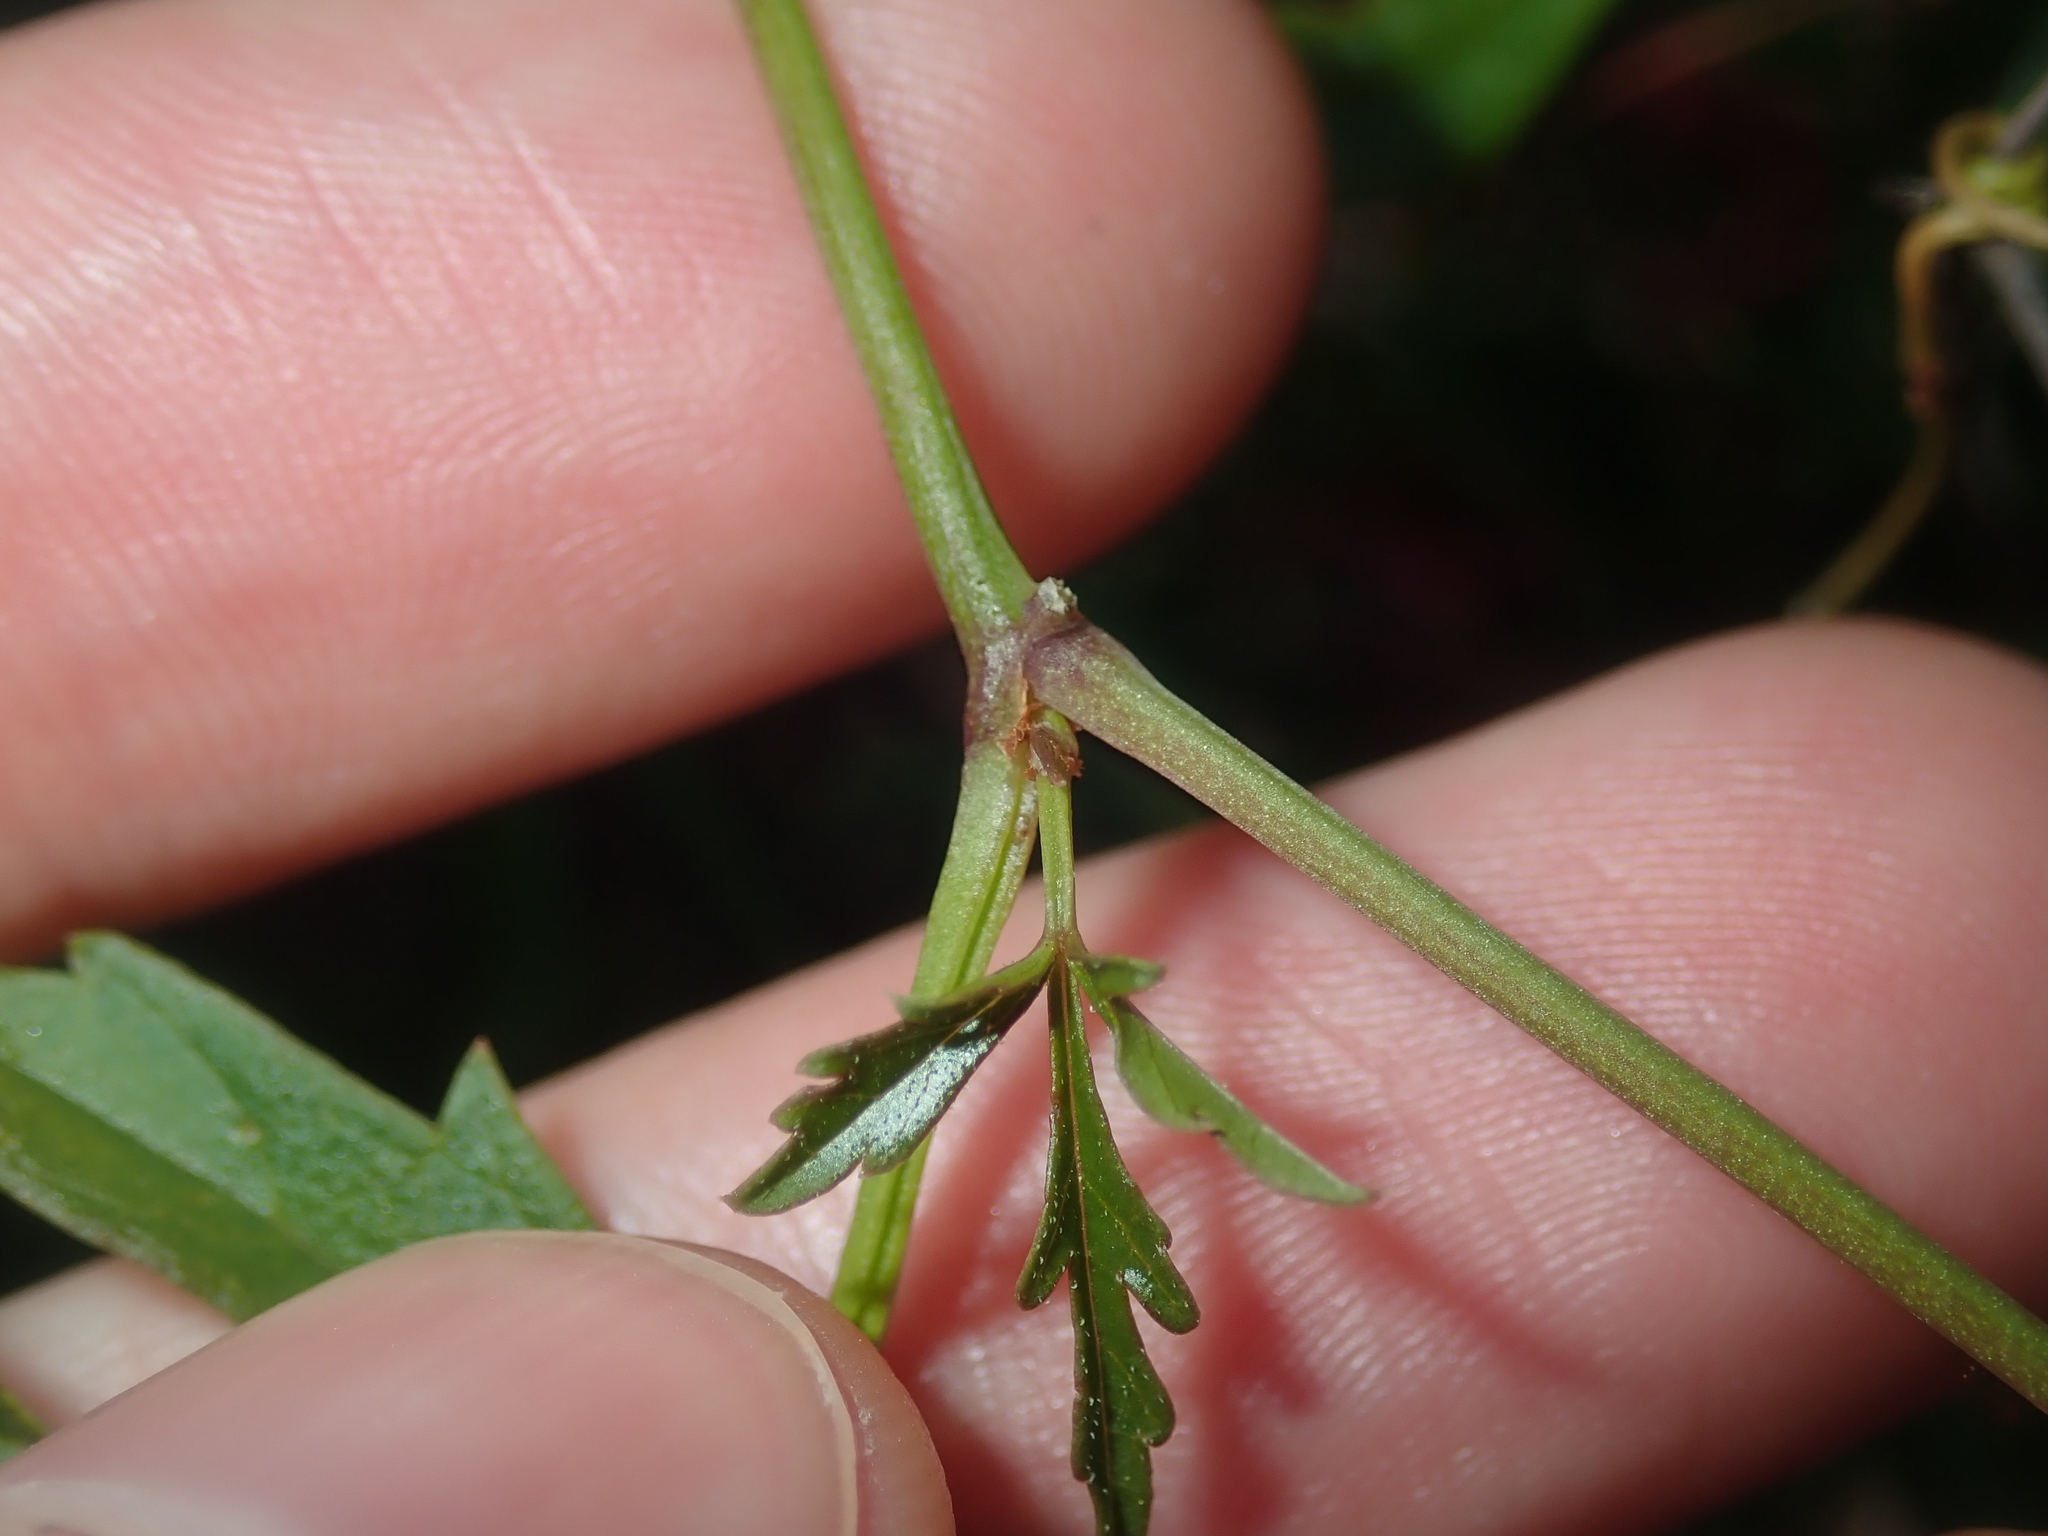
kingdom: Plantae
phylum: Tracheophyta
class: Magnoliopsida
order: Vitales
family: Vitaceae
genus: Clematicissus
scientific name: Clematicissus angustissima
